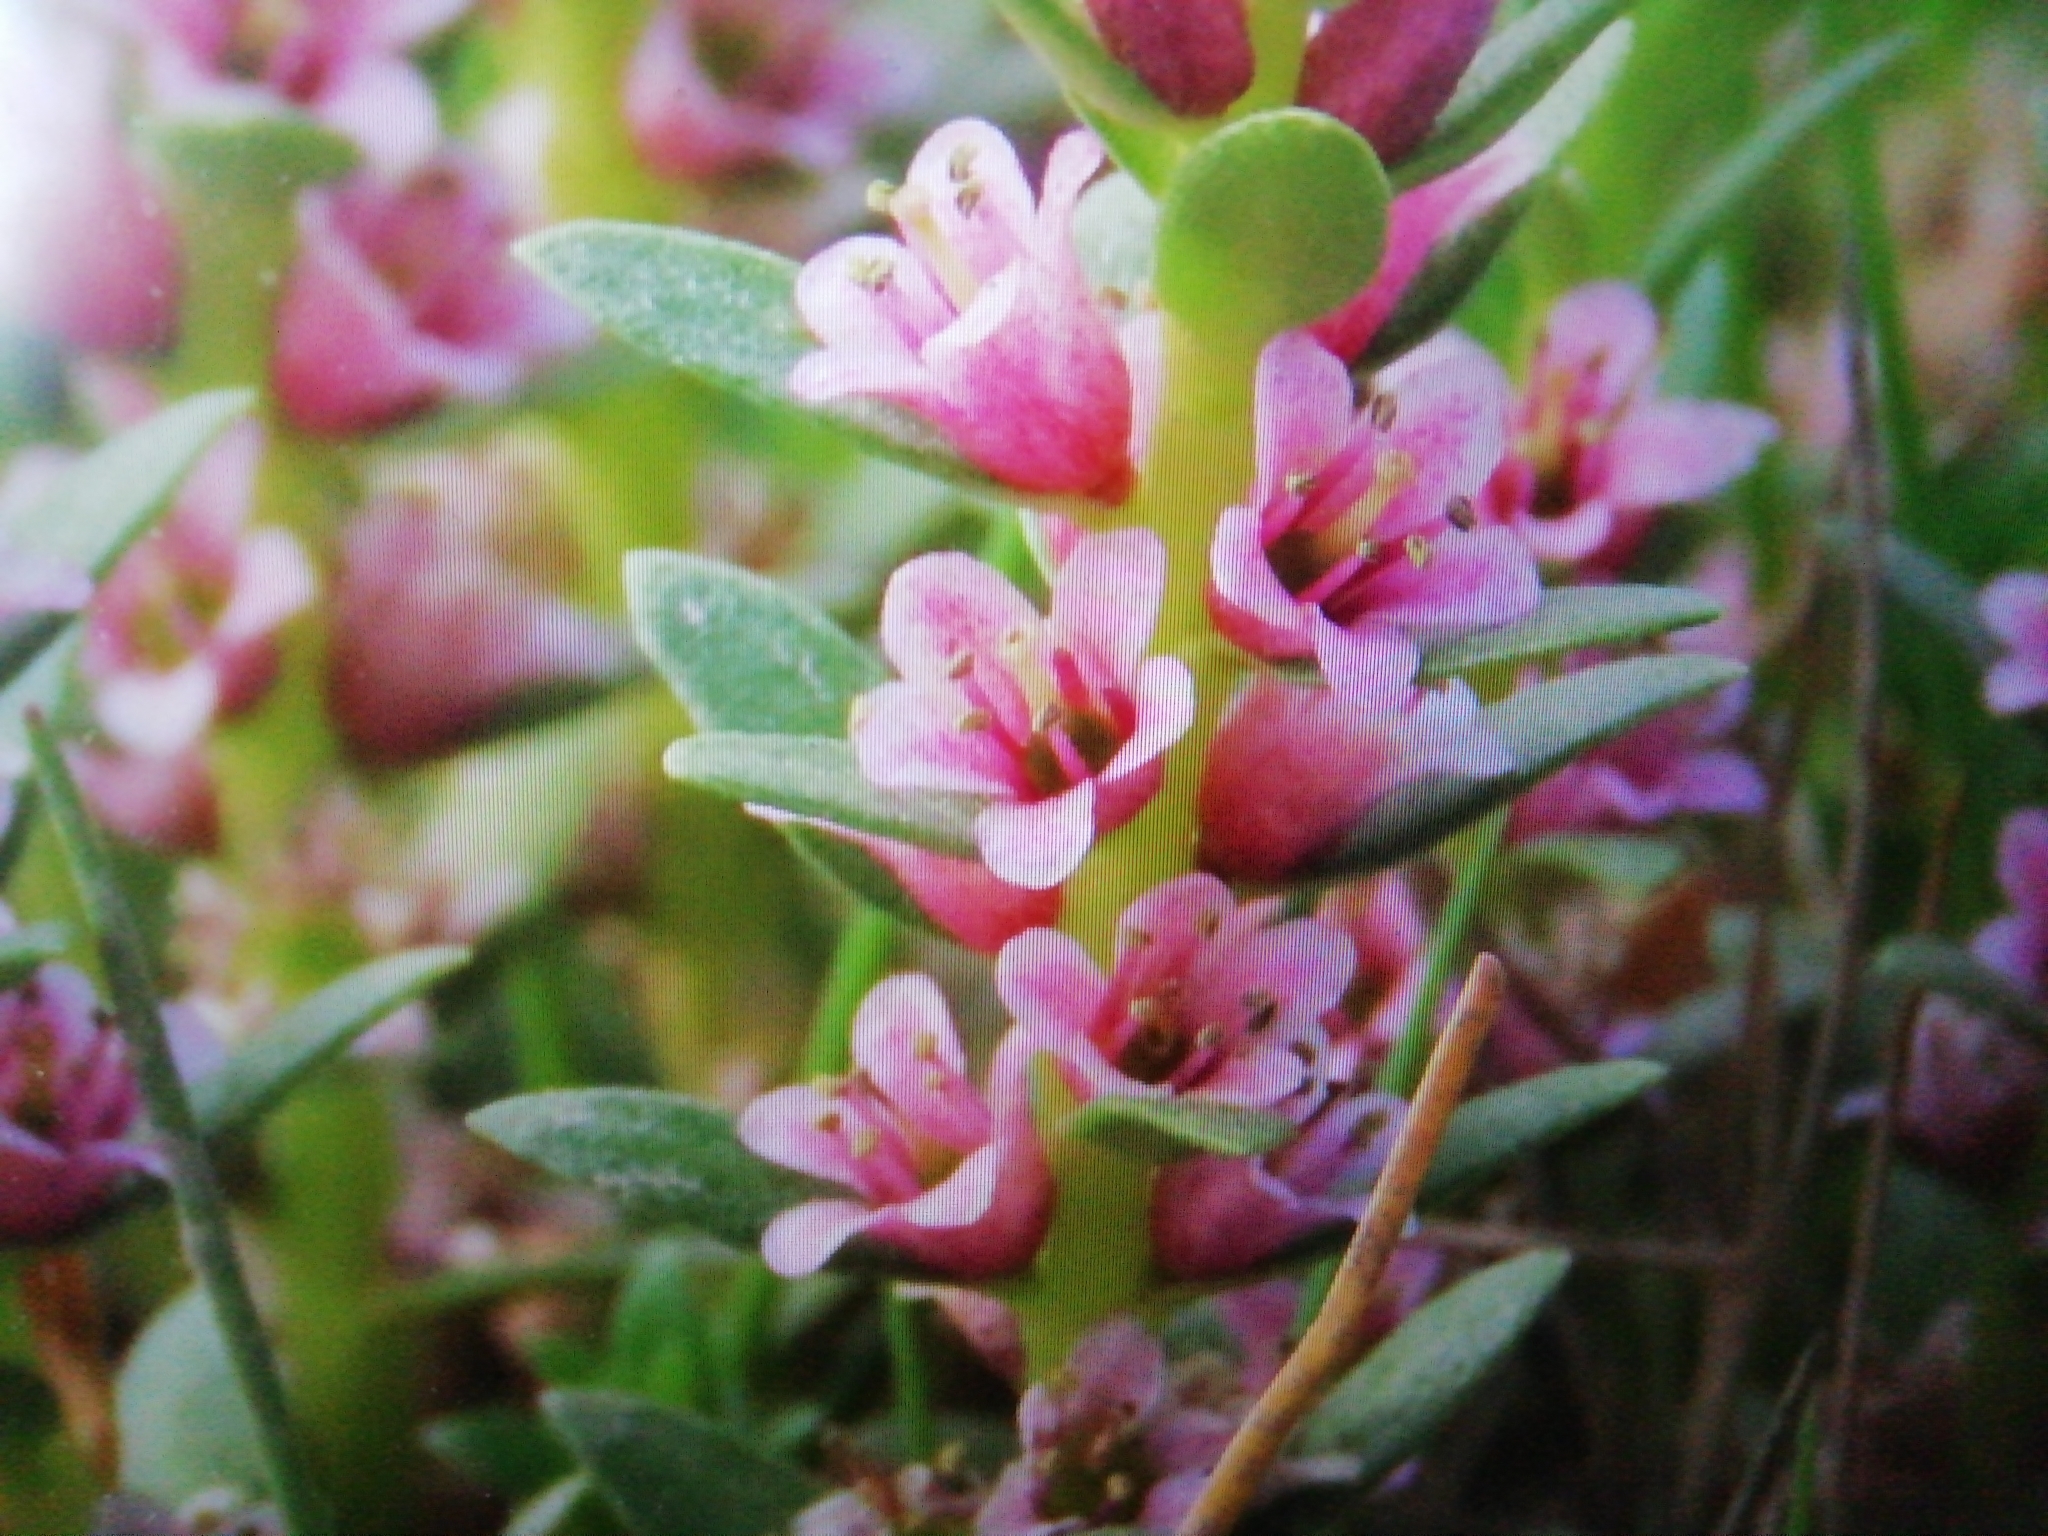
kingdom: Plantae
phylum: Tracheophyta
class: Magnoliopsida
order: Ericales
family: Primulaceae
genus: Lysimachia
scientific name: Lysimachia maritima
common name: Sea milkwort
